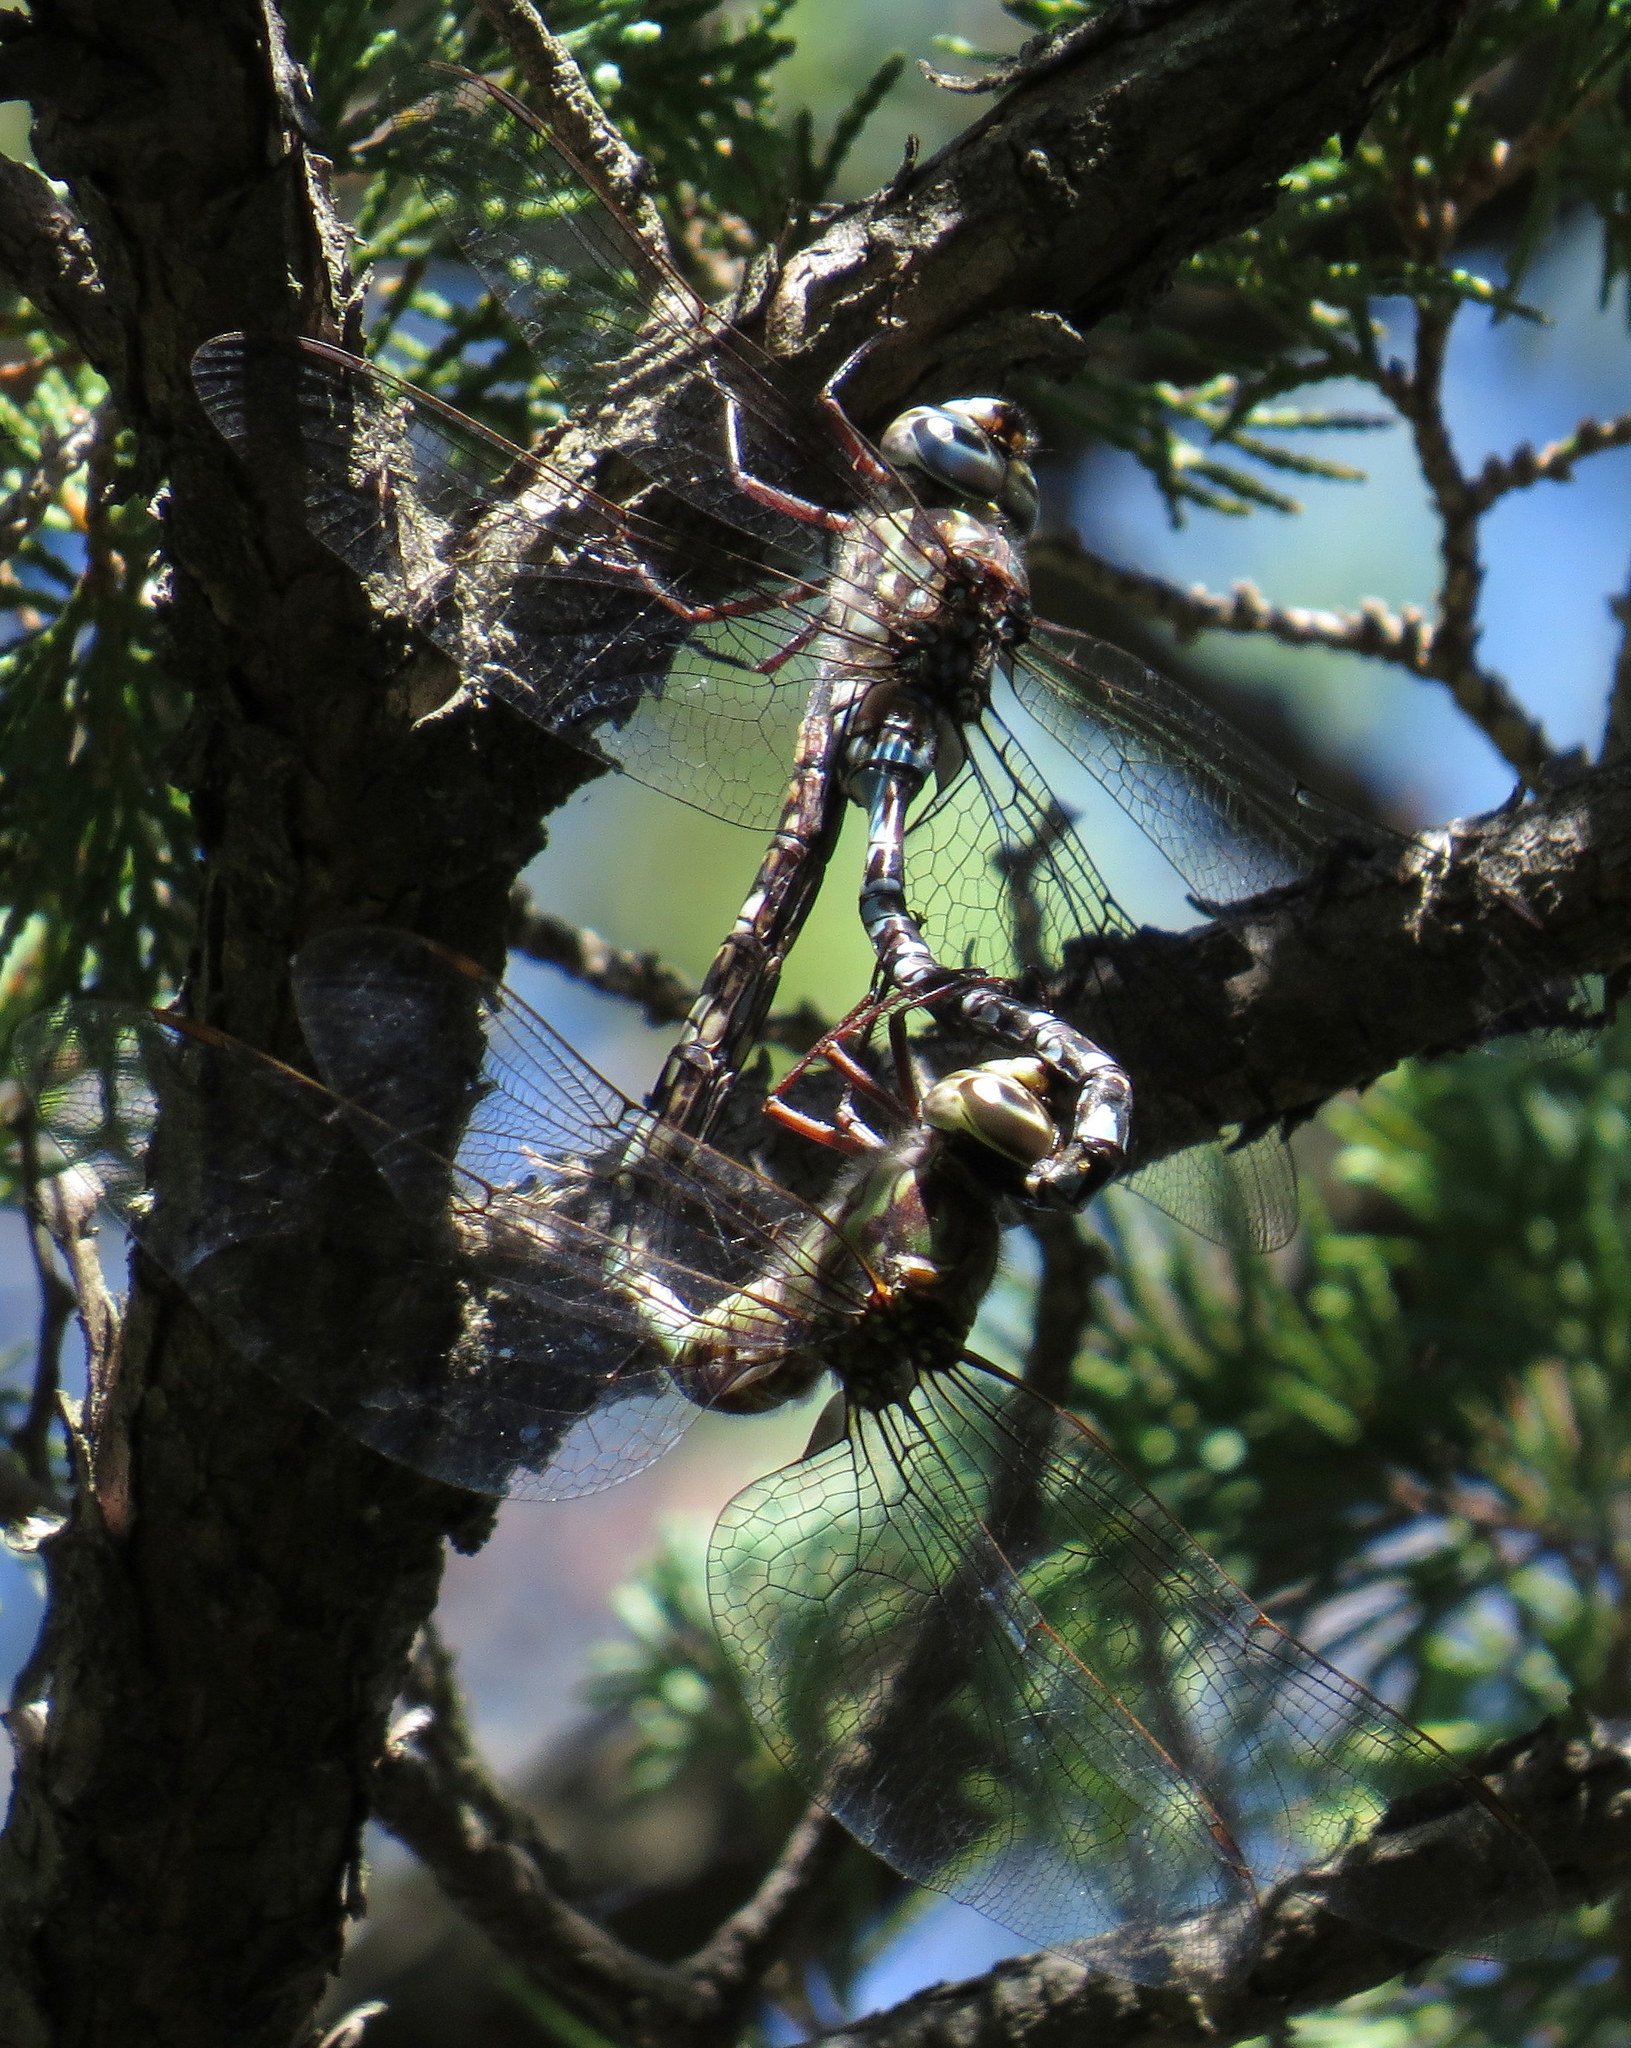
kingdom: Animalia
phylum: Arthropoda
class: Insecta
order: Odonata
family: Aeshnidae
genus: Aeshna
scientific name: Aeshna clepsydra
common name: Mottled darner
